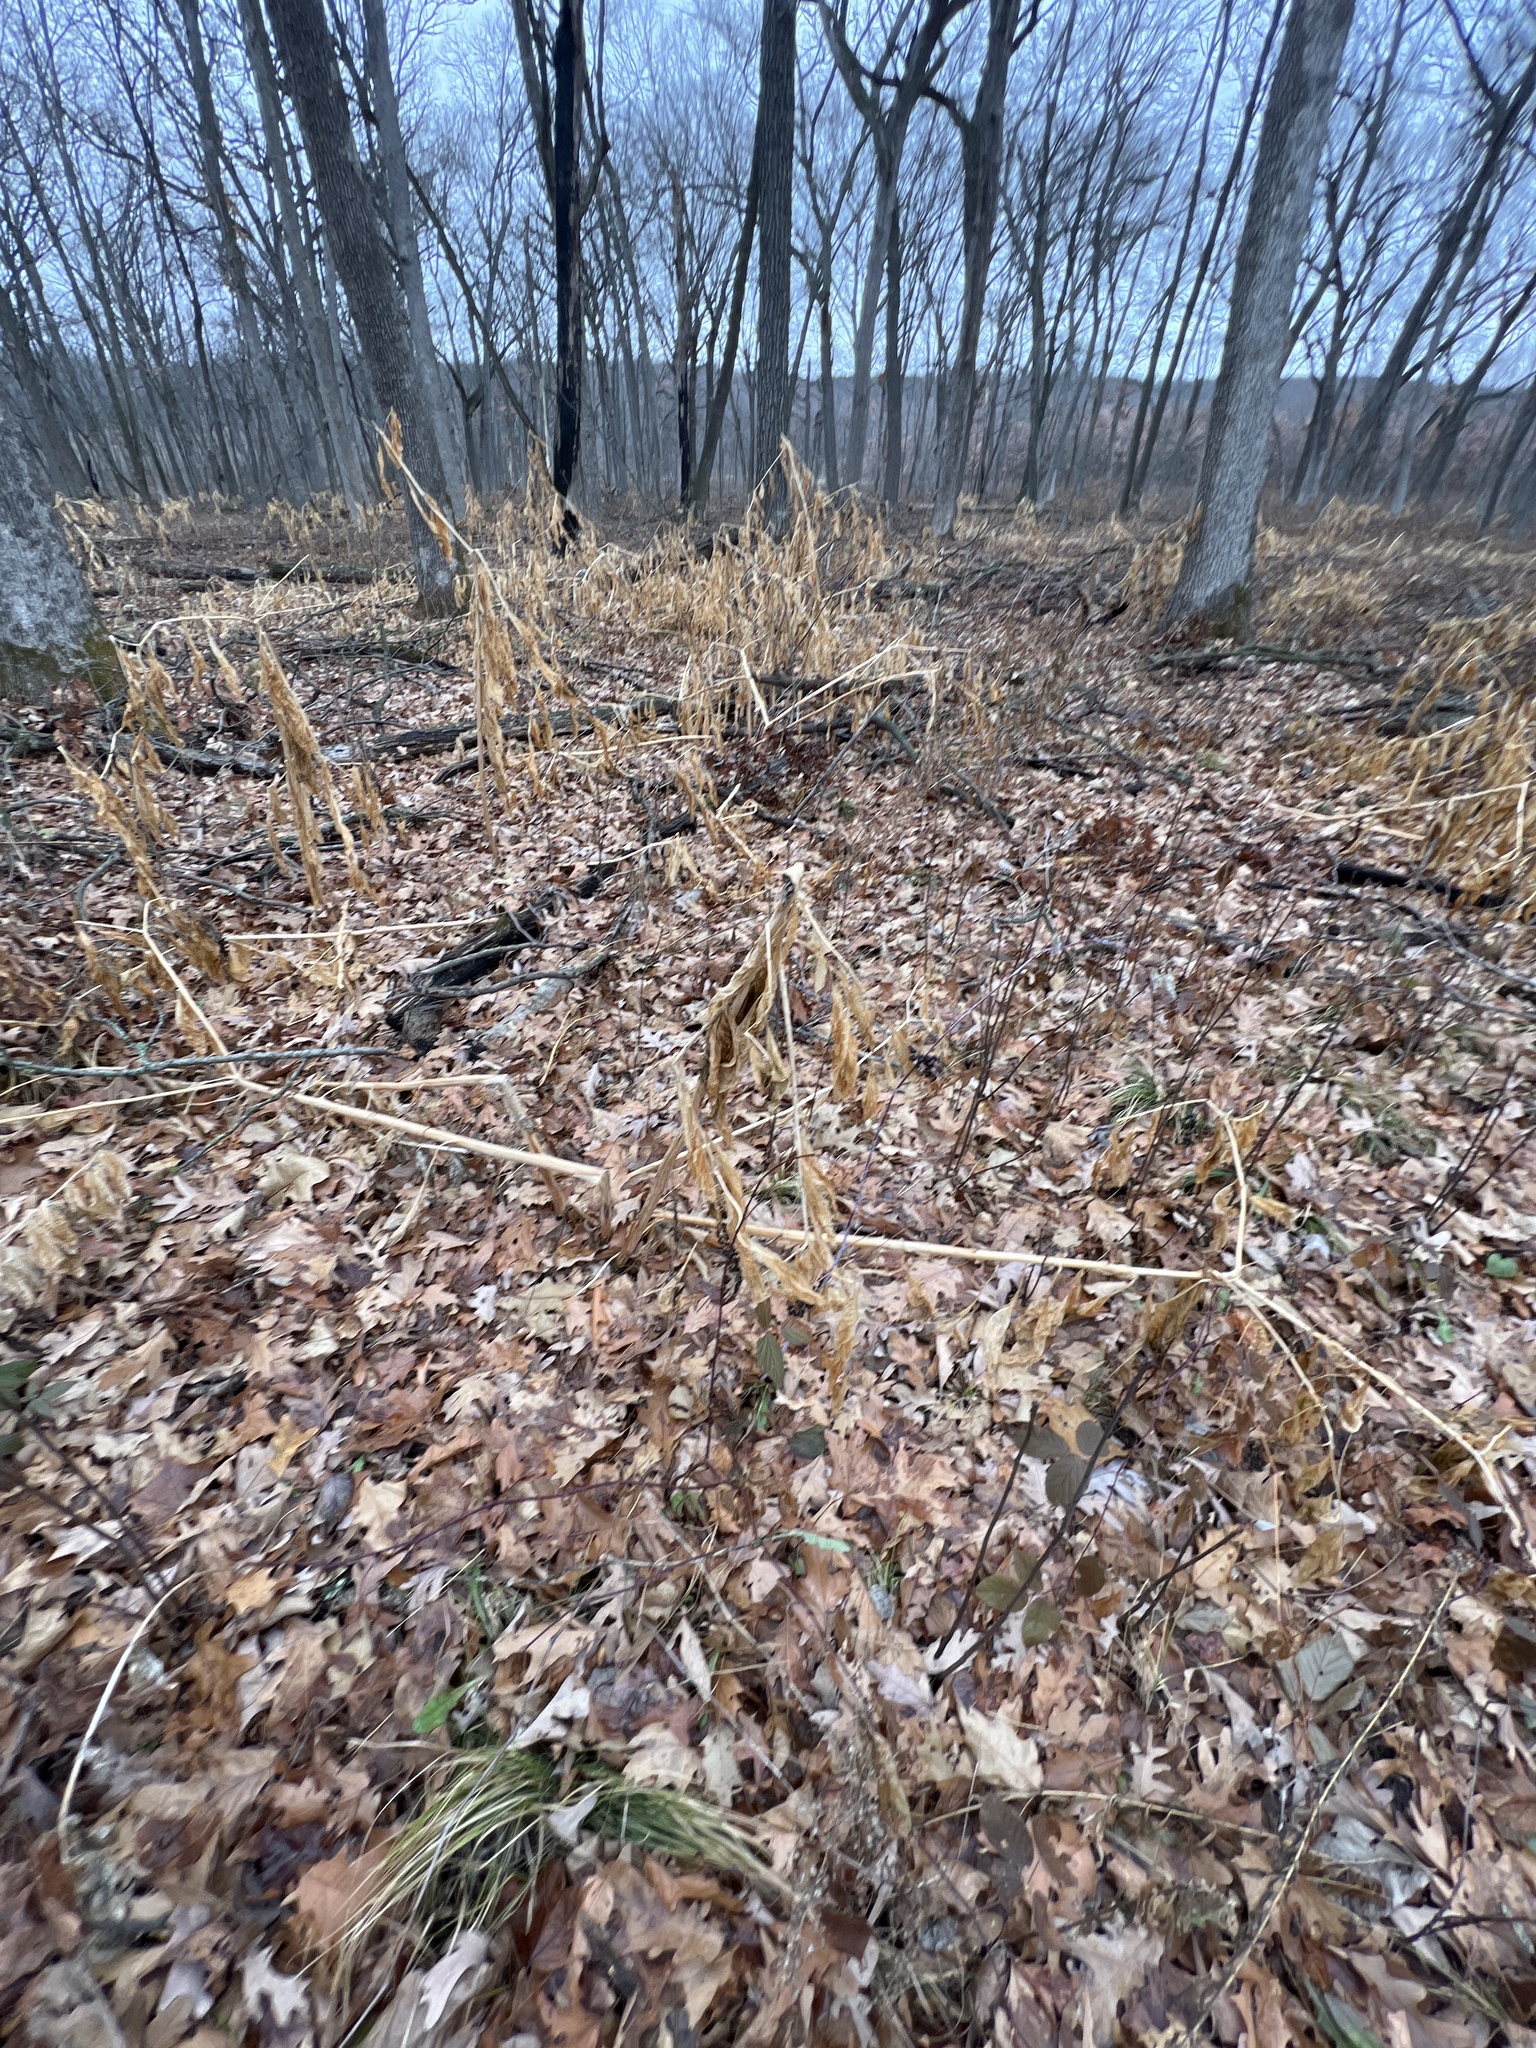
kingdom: Plantae
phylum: Tracheophyta
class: Magnoliopsida
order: Caryophyllales
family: Phytolaccaceae
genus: Phytolacca
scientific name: Phytolacca americana
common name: American pokeweed
